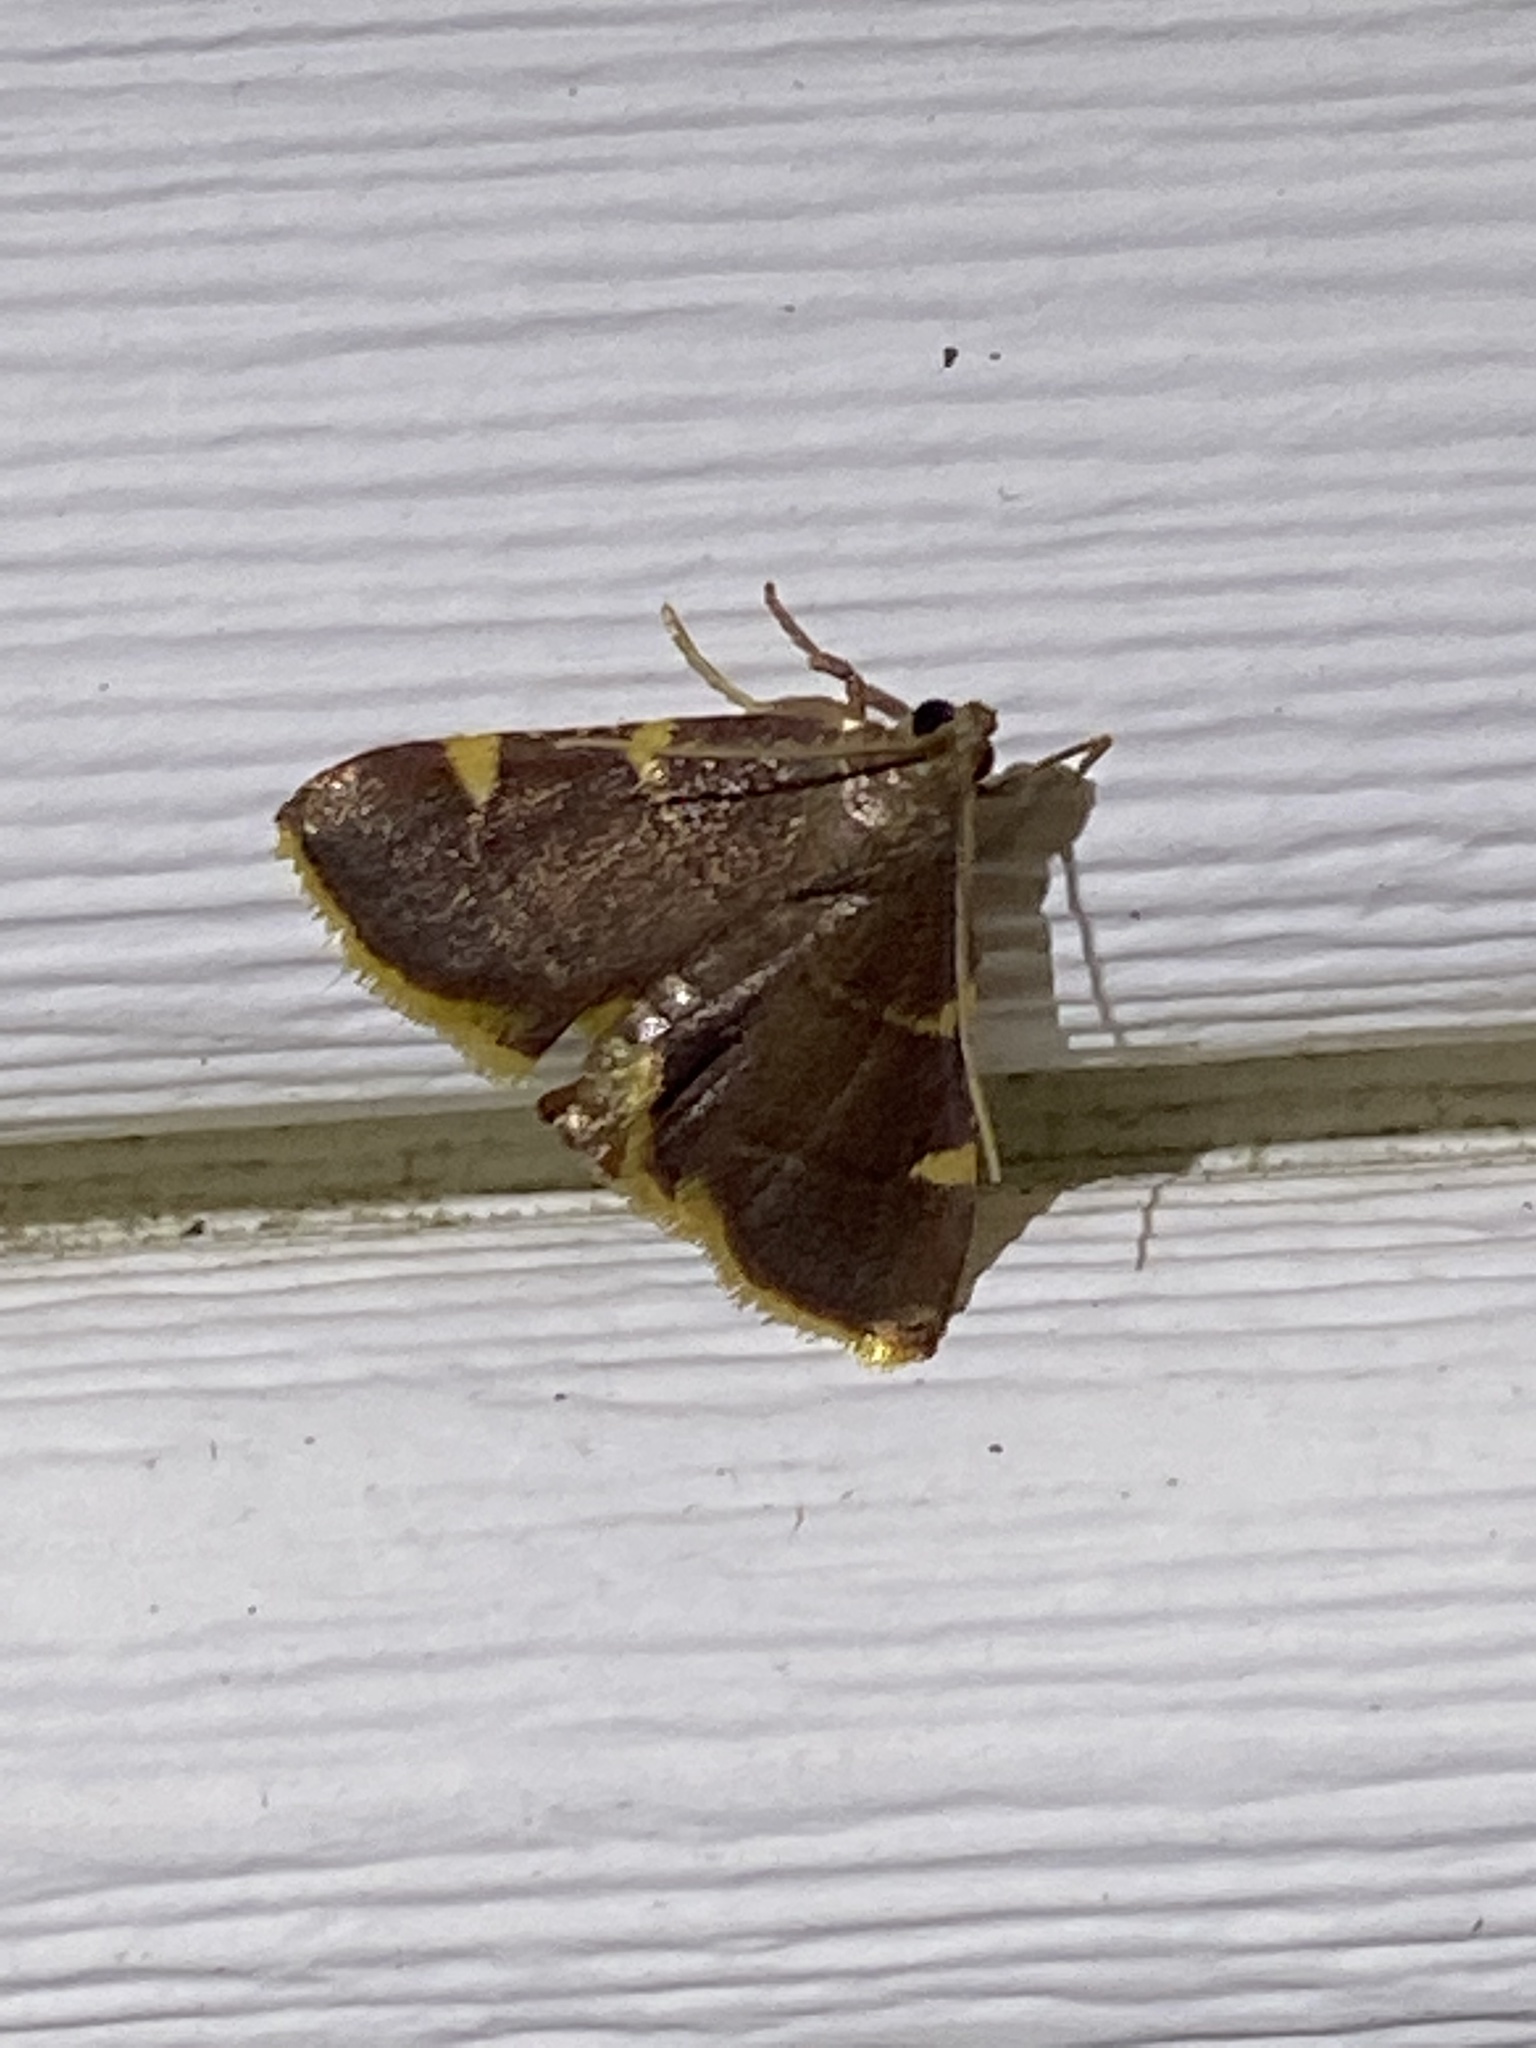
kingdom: Animalia
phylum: Arthropoda
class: Insecta
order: Lepidoptera
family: Pyralidae
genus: Hypsopygia
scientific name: Hypsopygia olinalis
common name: Yellow-fringed dolichomia moth
